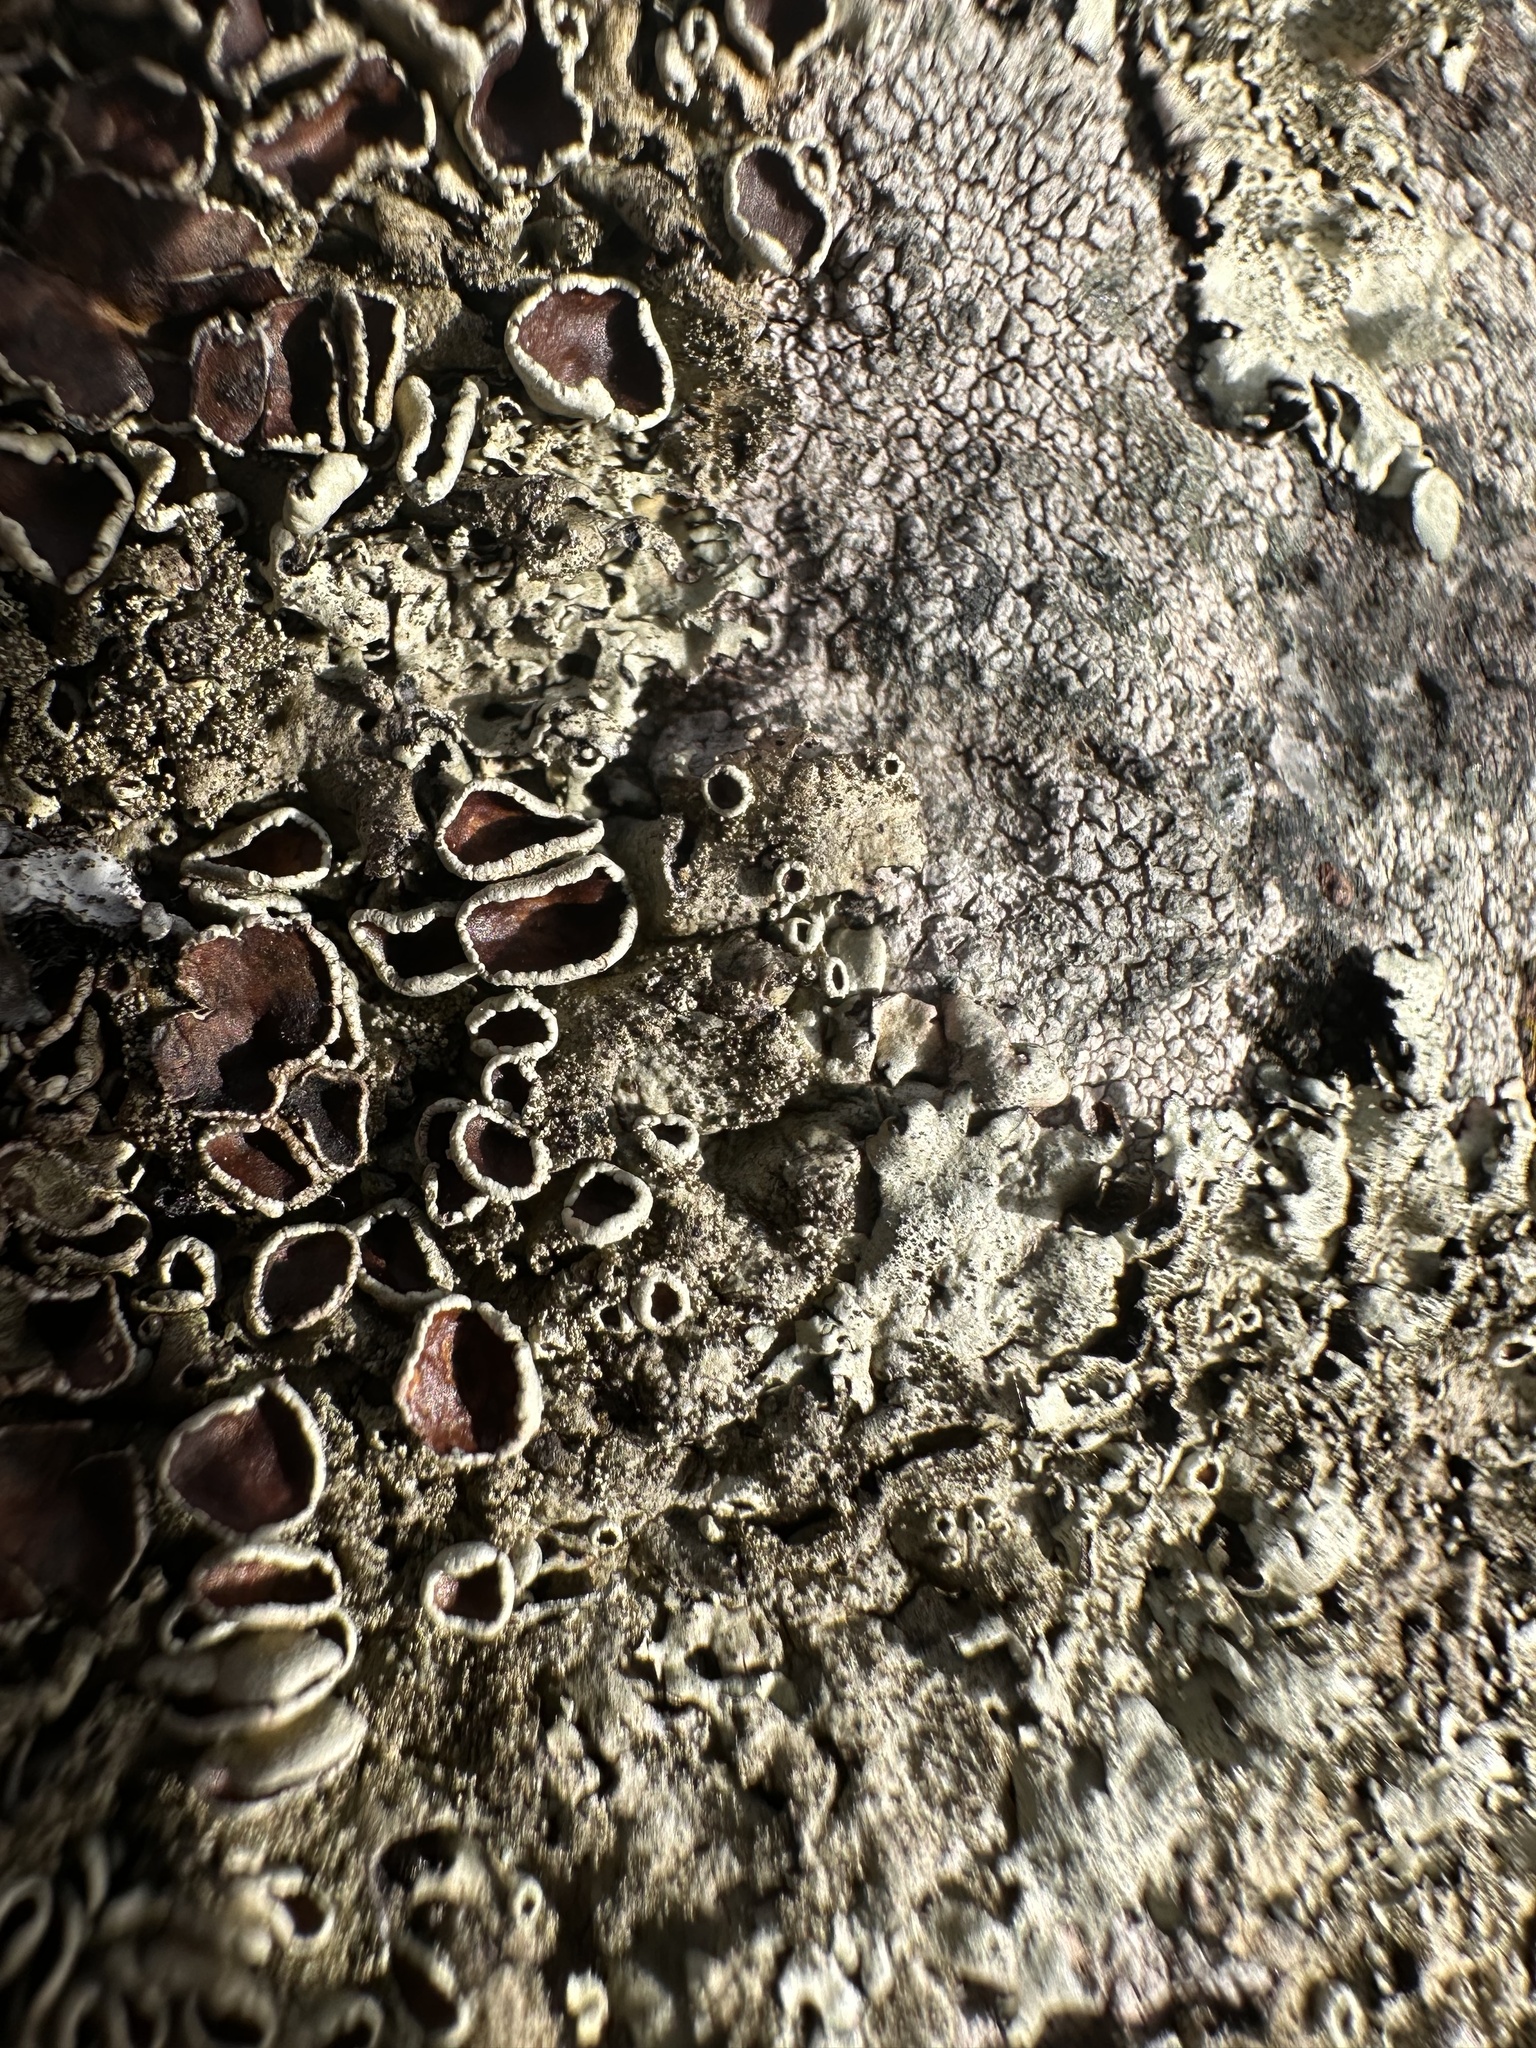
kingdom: Fungi
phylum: Ascomycota
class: Lecanoromycetes
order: Lecanorales
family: Parmeliaceae
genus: Xanthoparmelia
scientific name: Xanthoparmelia conspersa
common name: Peppered rock shield
